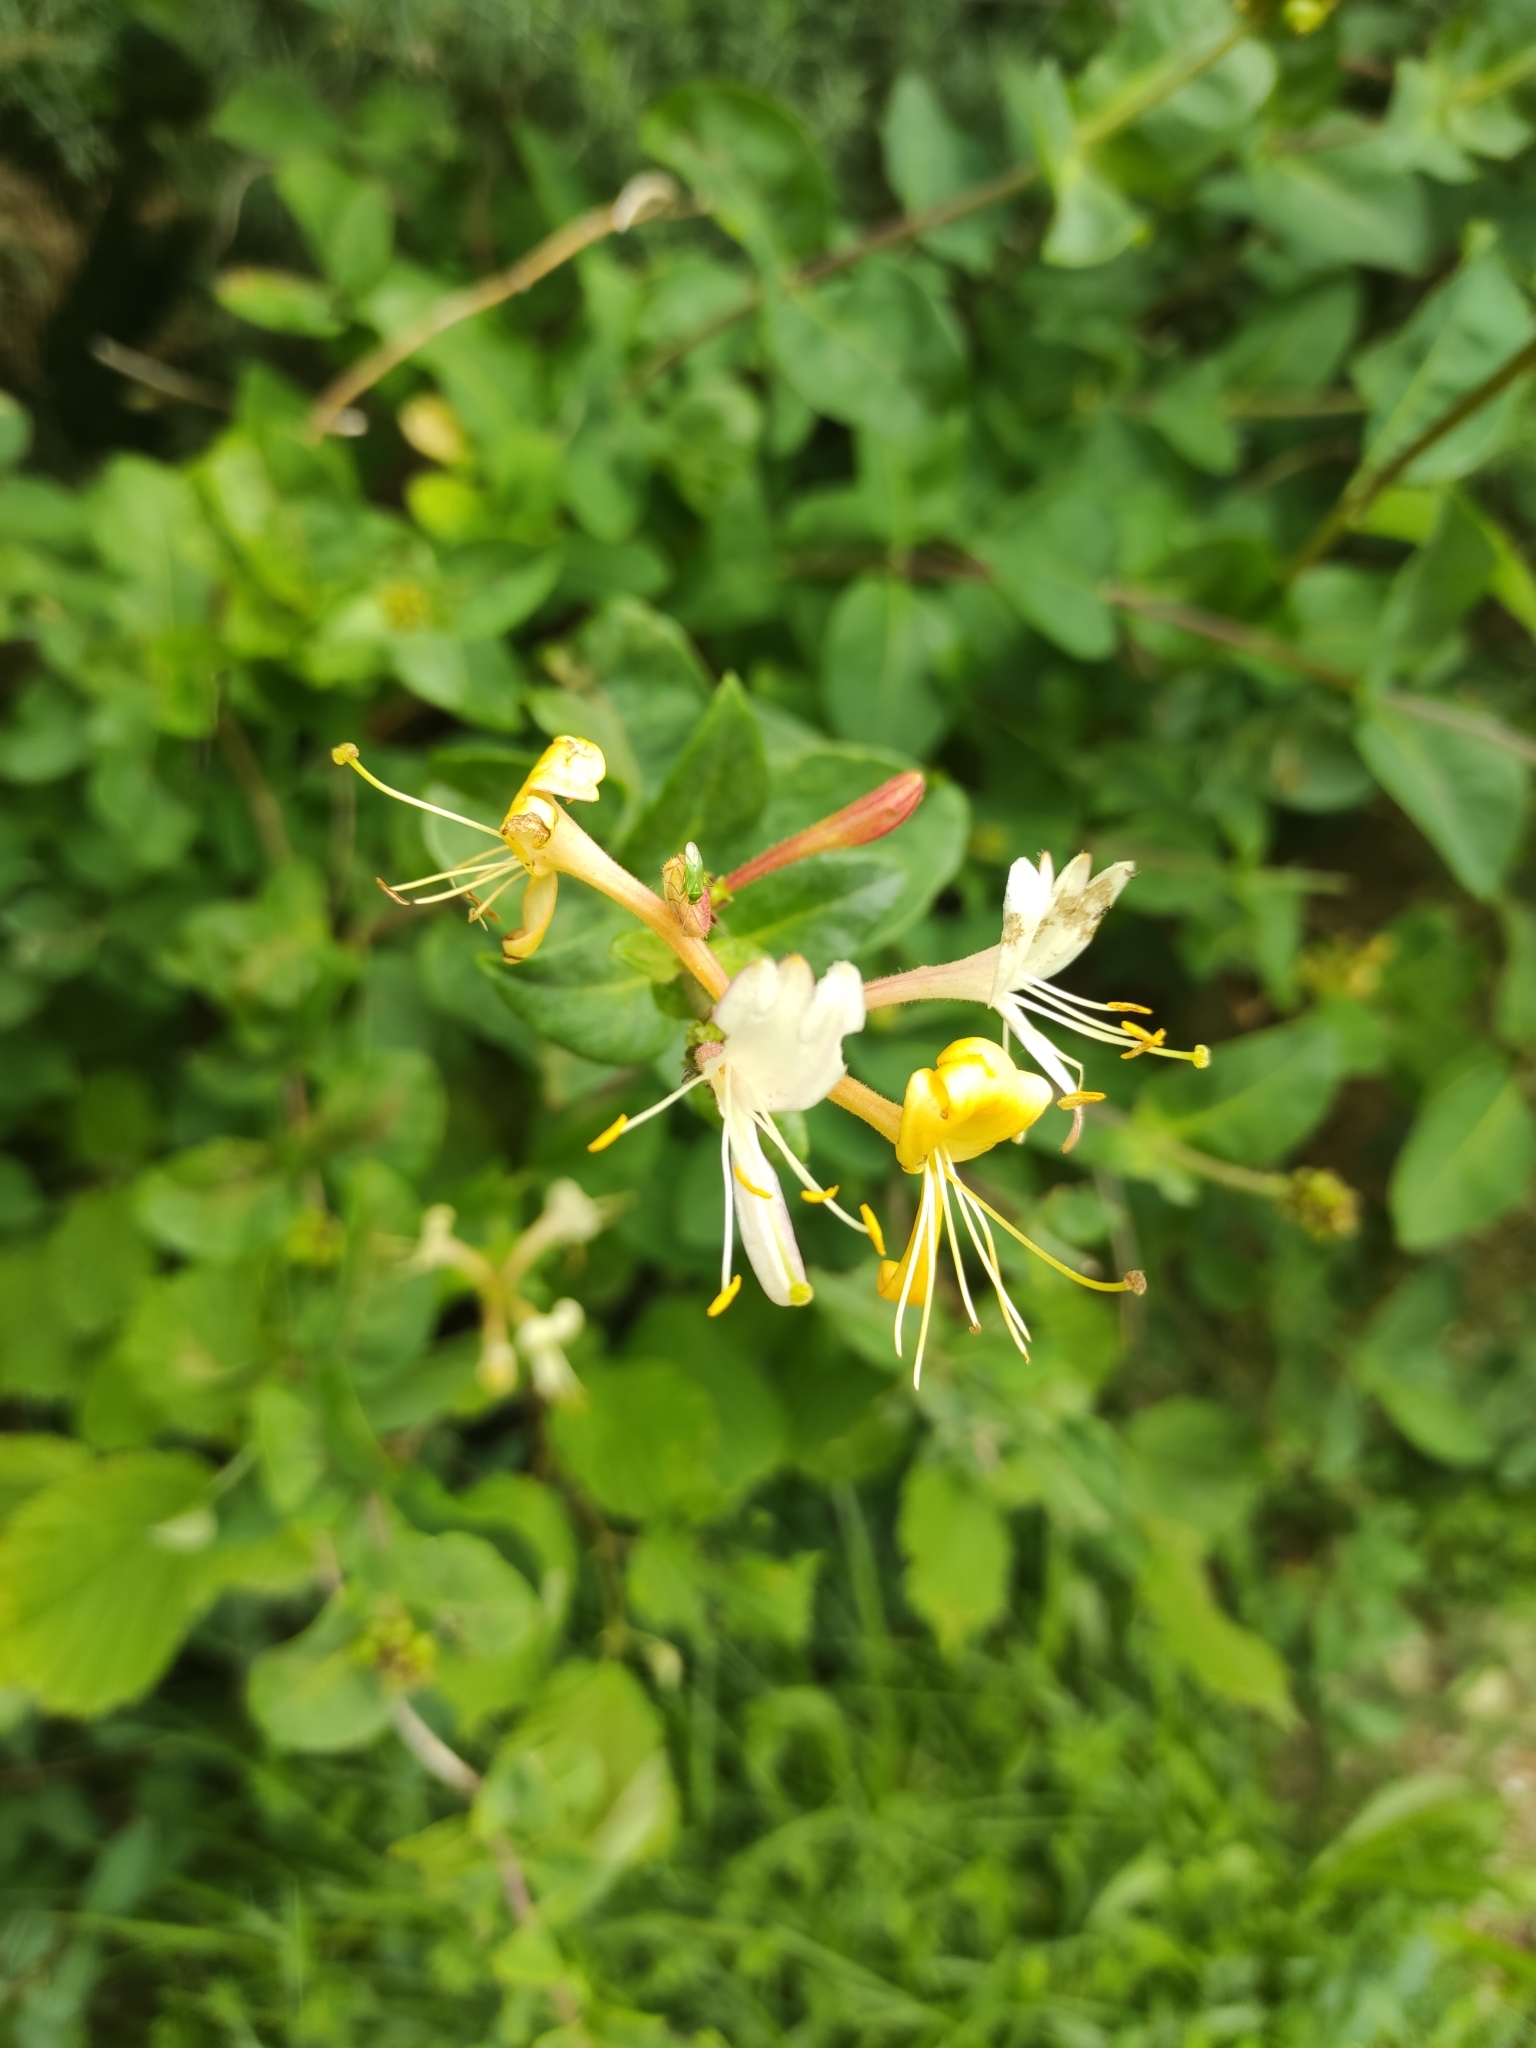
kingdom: Plantae
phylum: Tracheophyta
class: Magnoliopsida
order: Dipsacales
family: Caprifoliaceae
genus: Lonicera
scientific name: Lonicera periclymenum
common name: European honeysuckle
